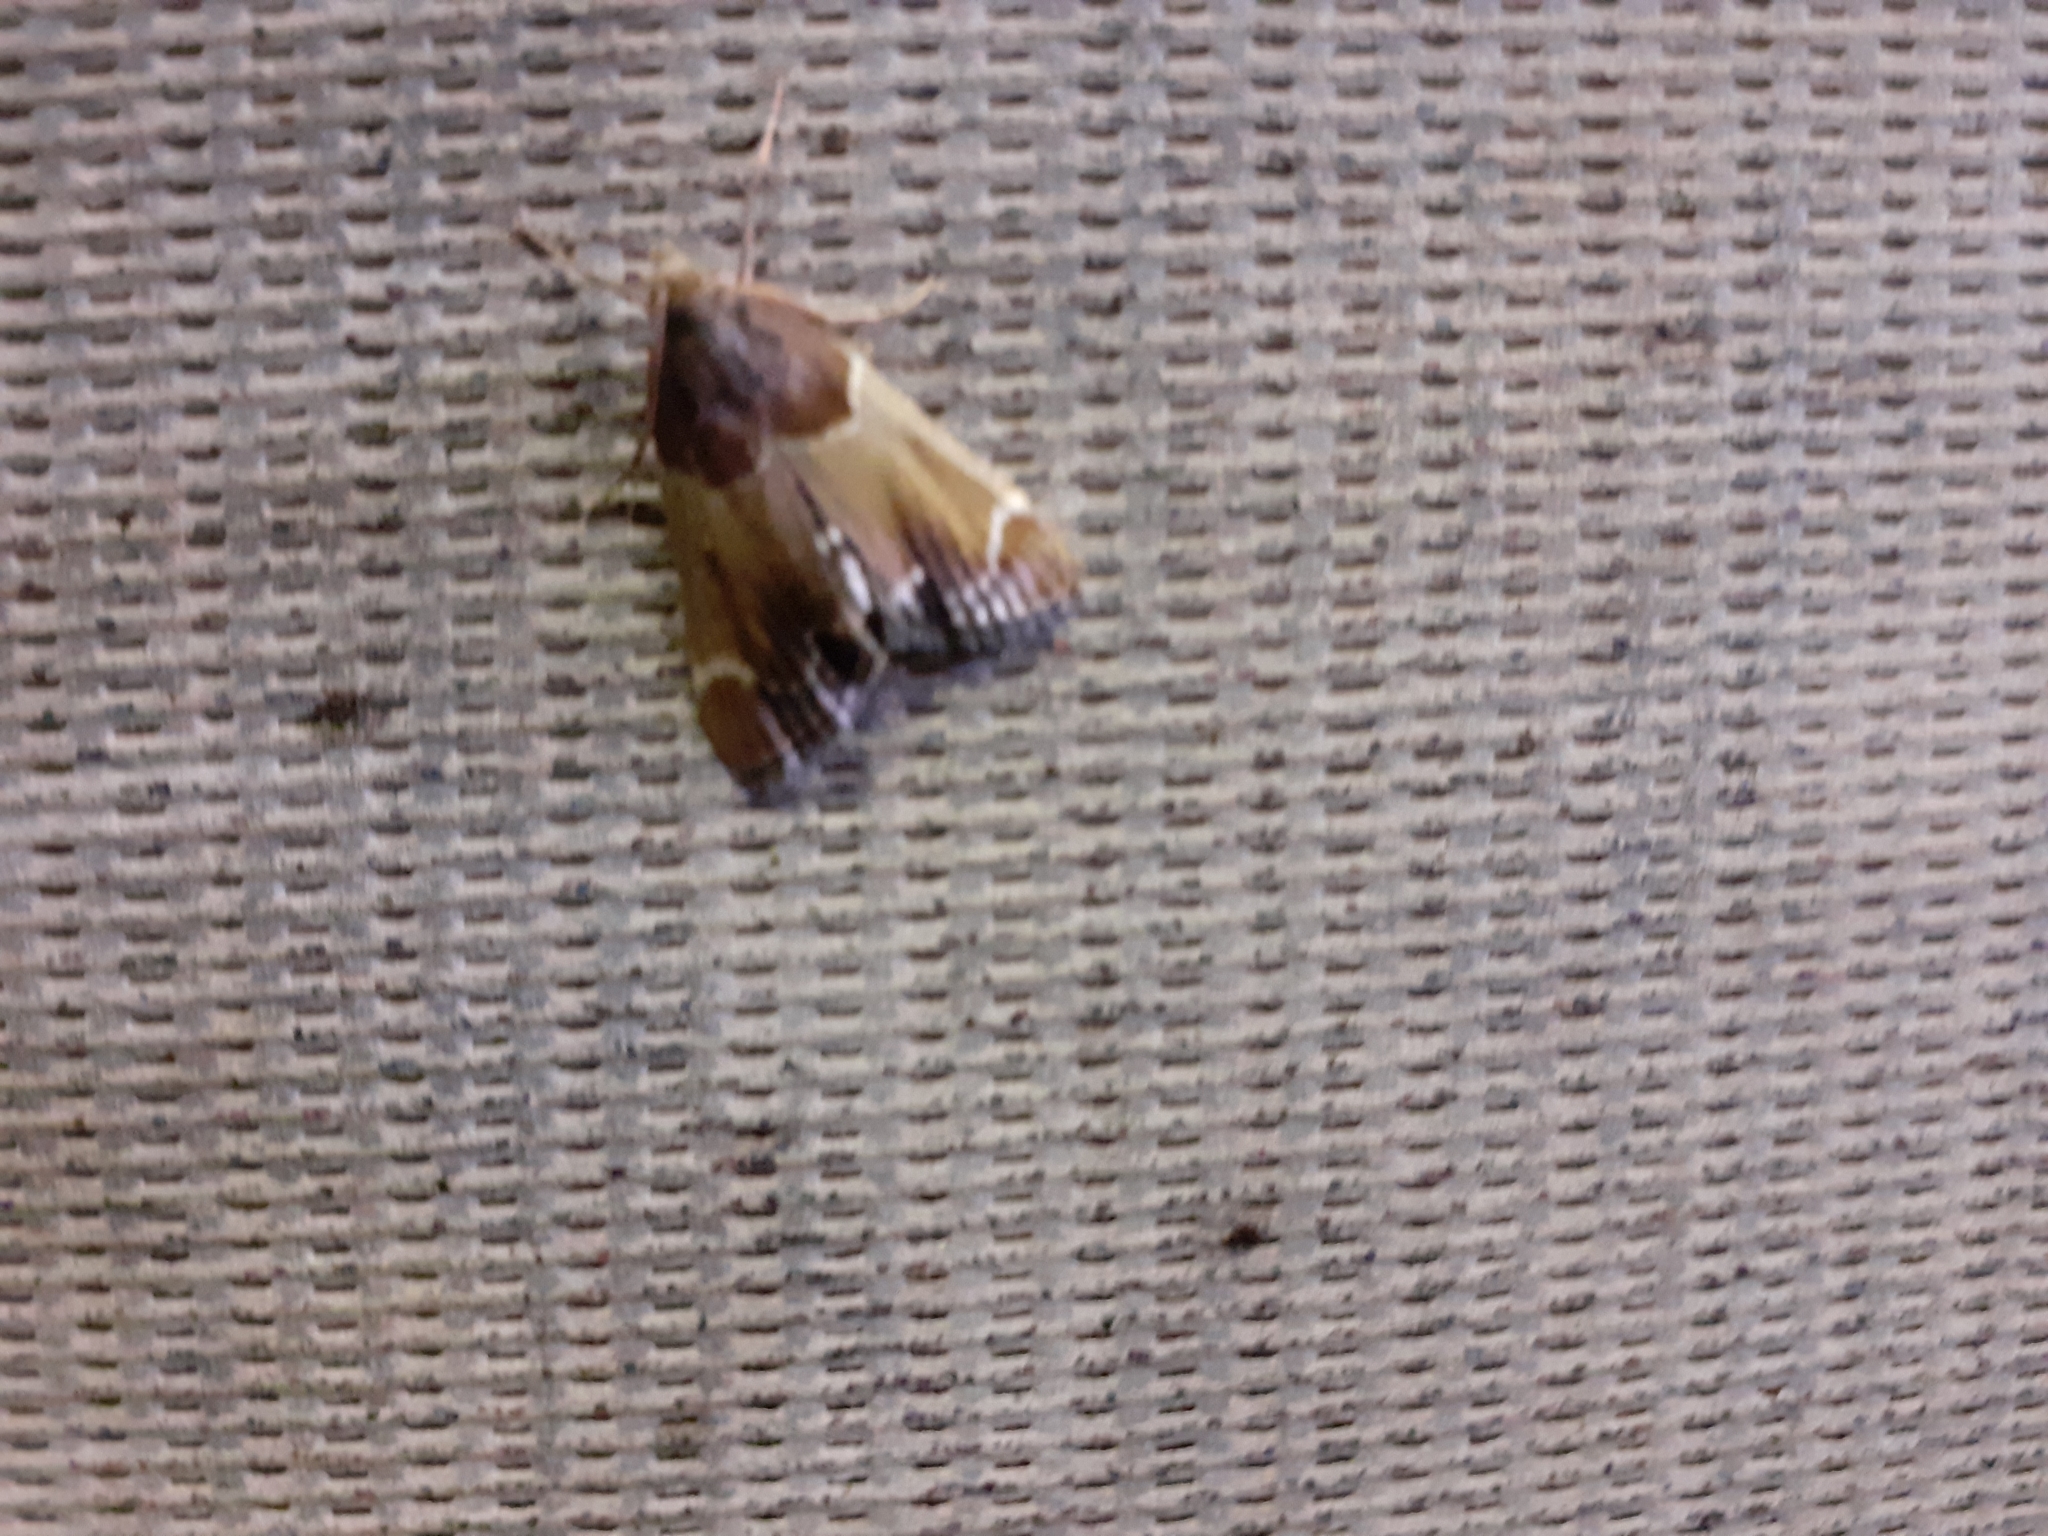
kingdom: Animalia
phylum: Arthropoda
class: Insecta
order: Lepidoptera
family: Pyralidae
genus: Pyralis
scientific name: Pyralis farinalis
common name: Meal moth
